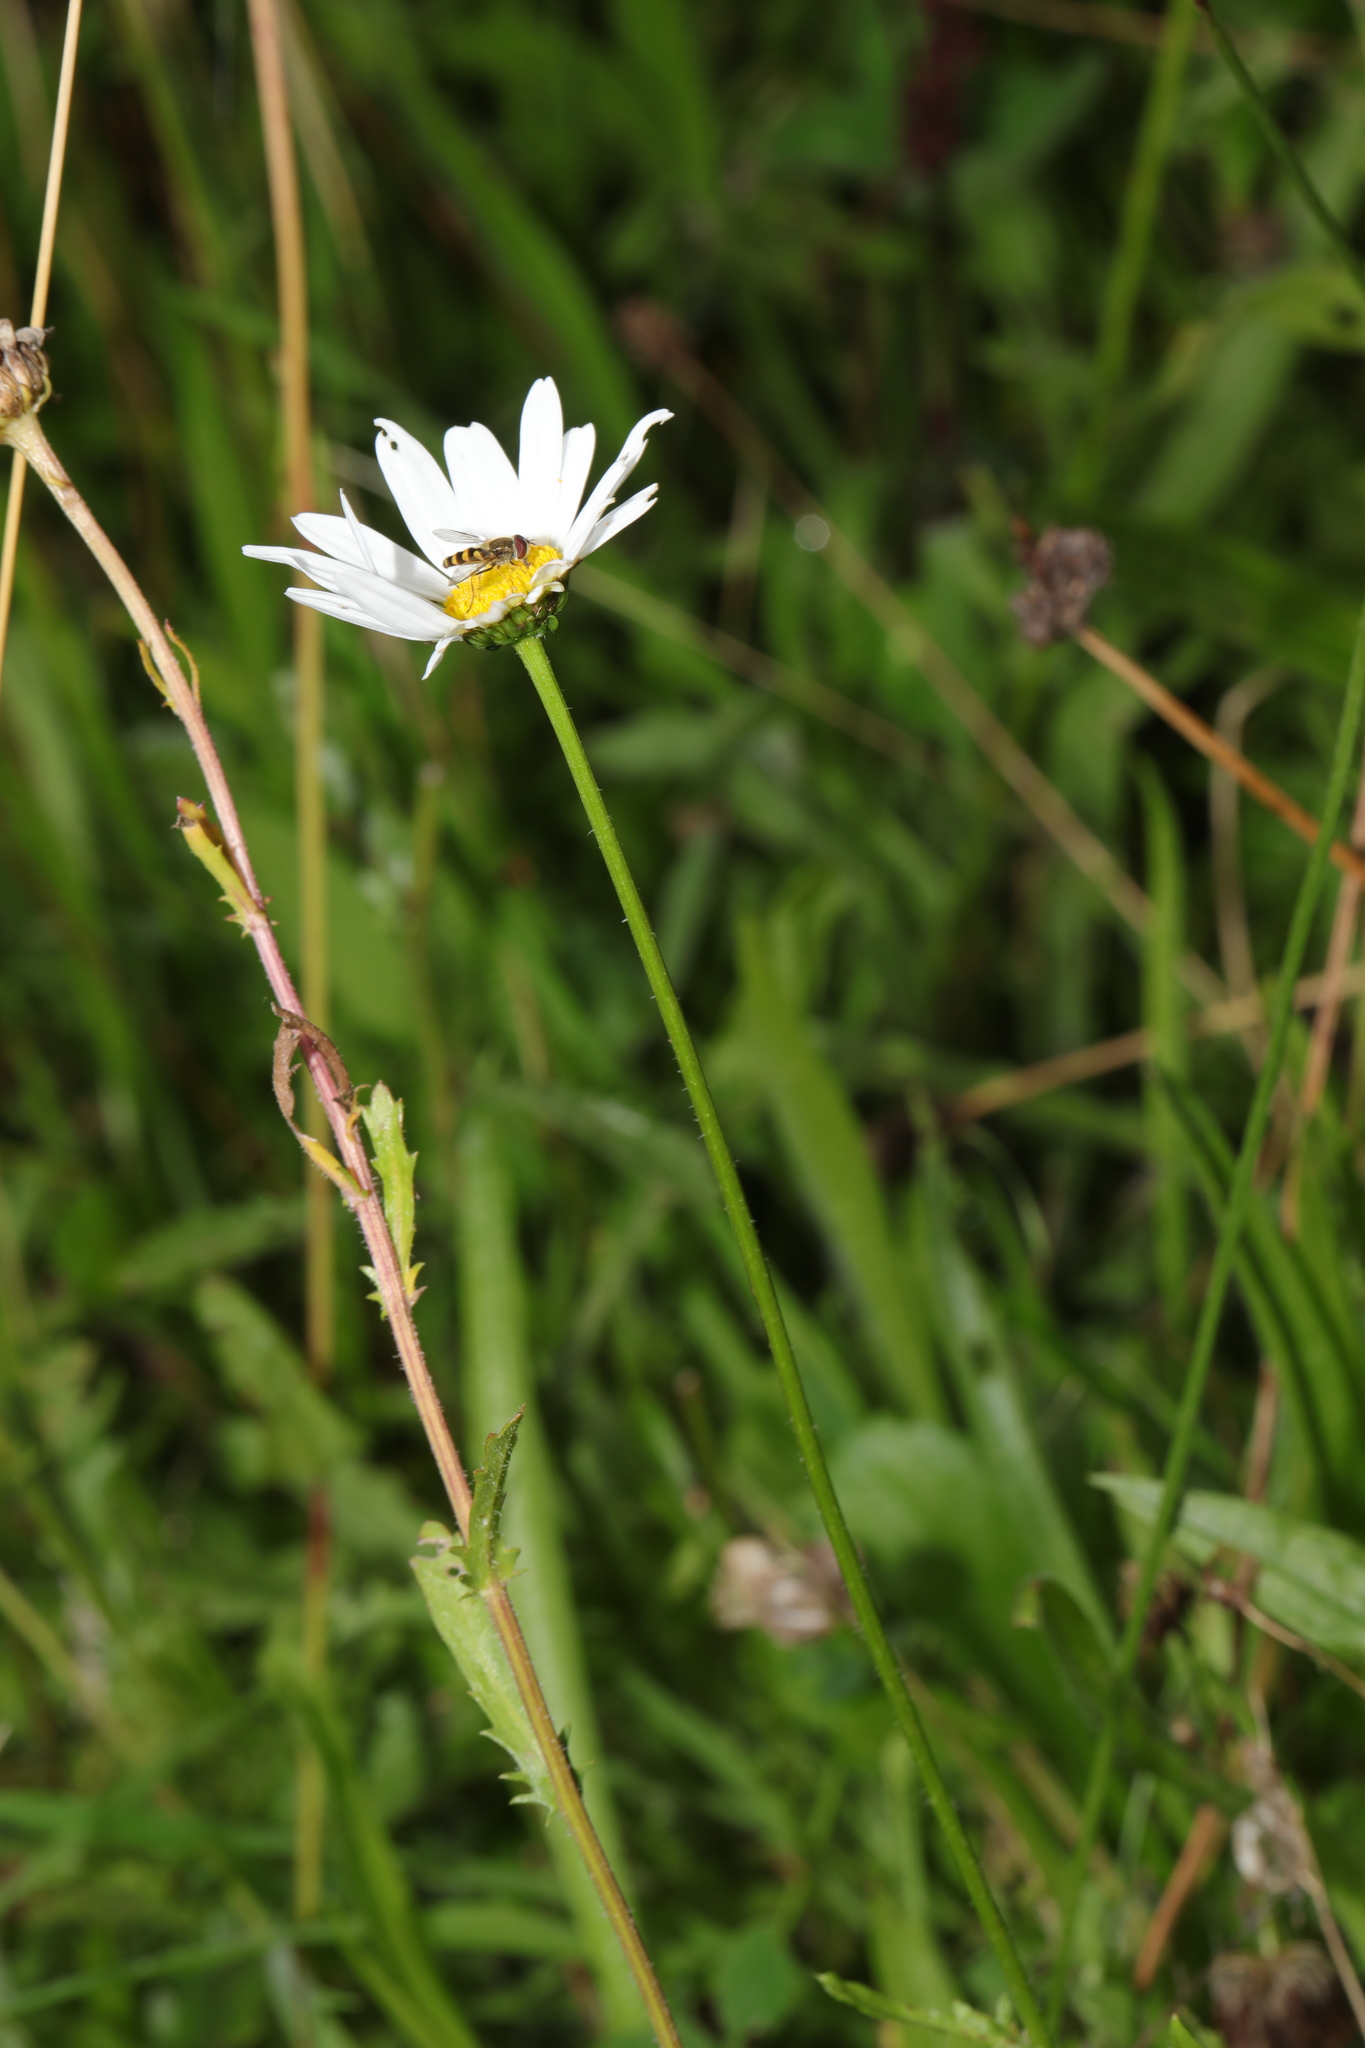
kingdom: Plantae
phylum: Tracheophyta
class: Magnoliopsida
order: Asterales
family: Asteraceae
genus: Leucanthemum
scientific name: Leucanthemum vulgare
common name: Oxeye daisy
